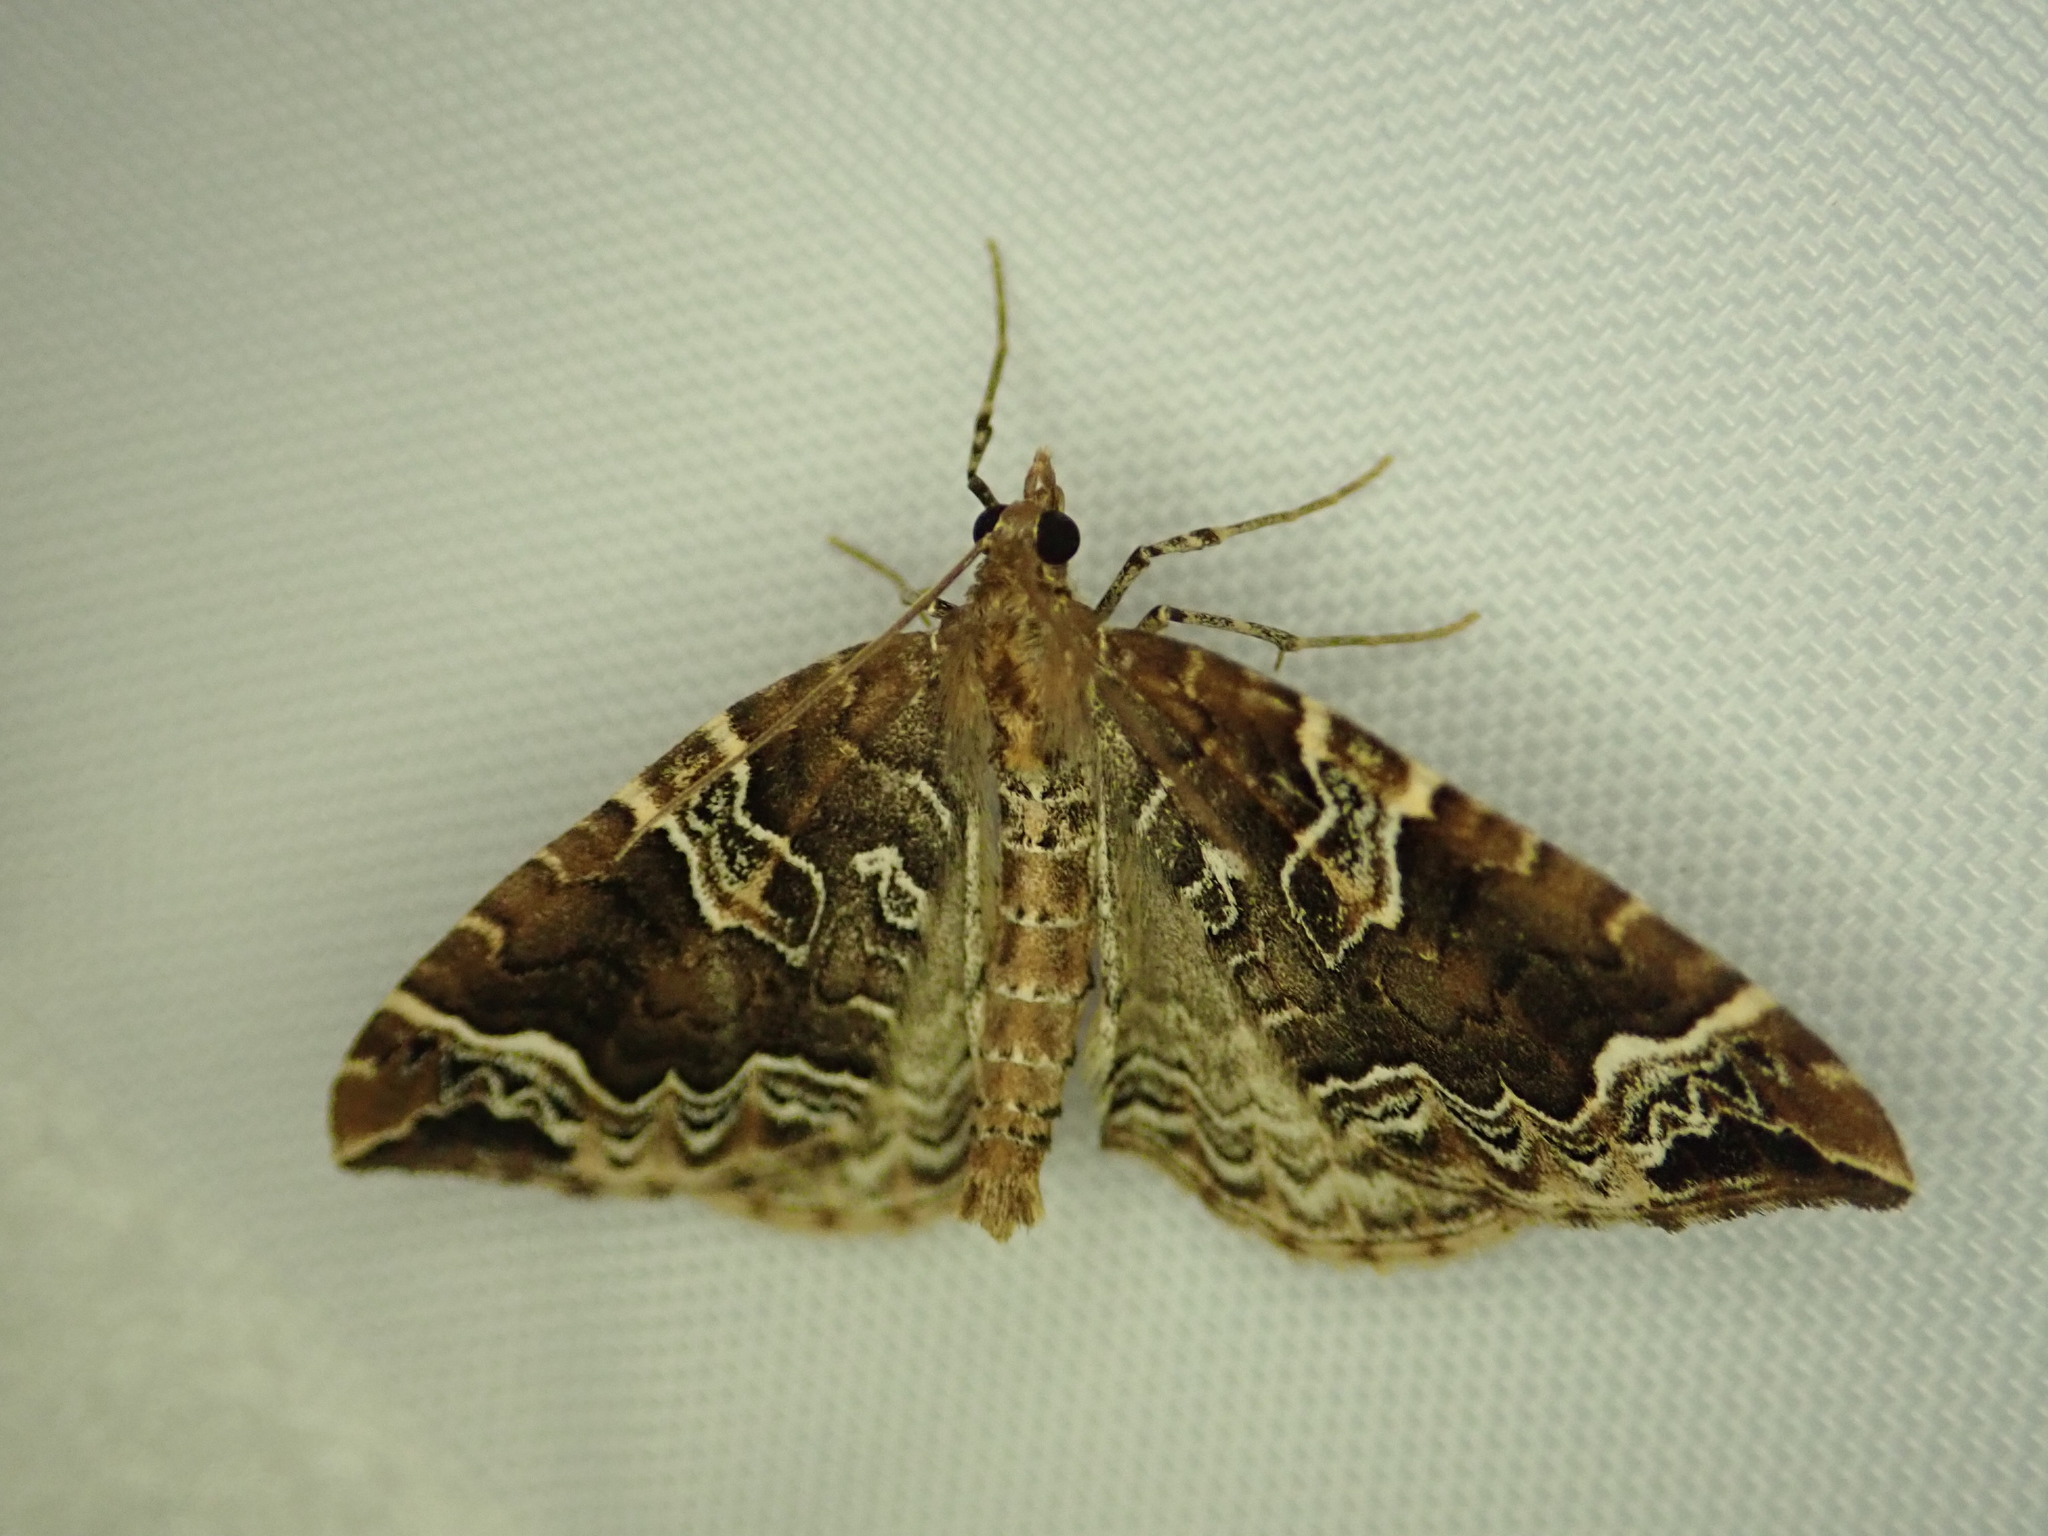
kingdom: Animalia
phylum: Arthropoda
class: Insecta
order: Lepidoptera
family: Geometridae
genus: Eulithis
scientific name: Eulithis prunata
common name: Phoenix
